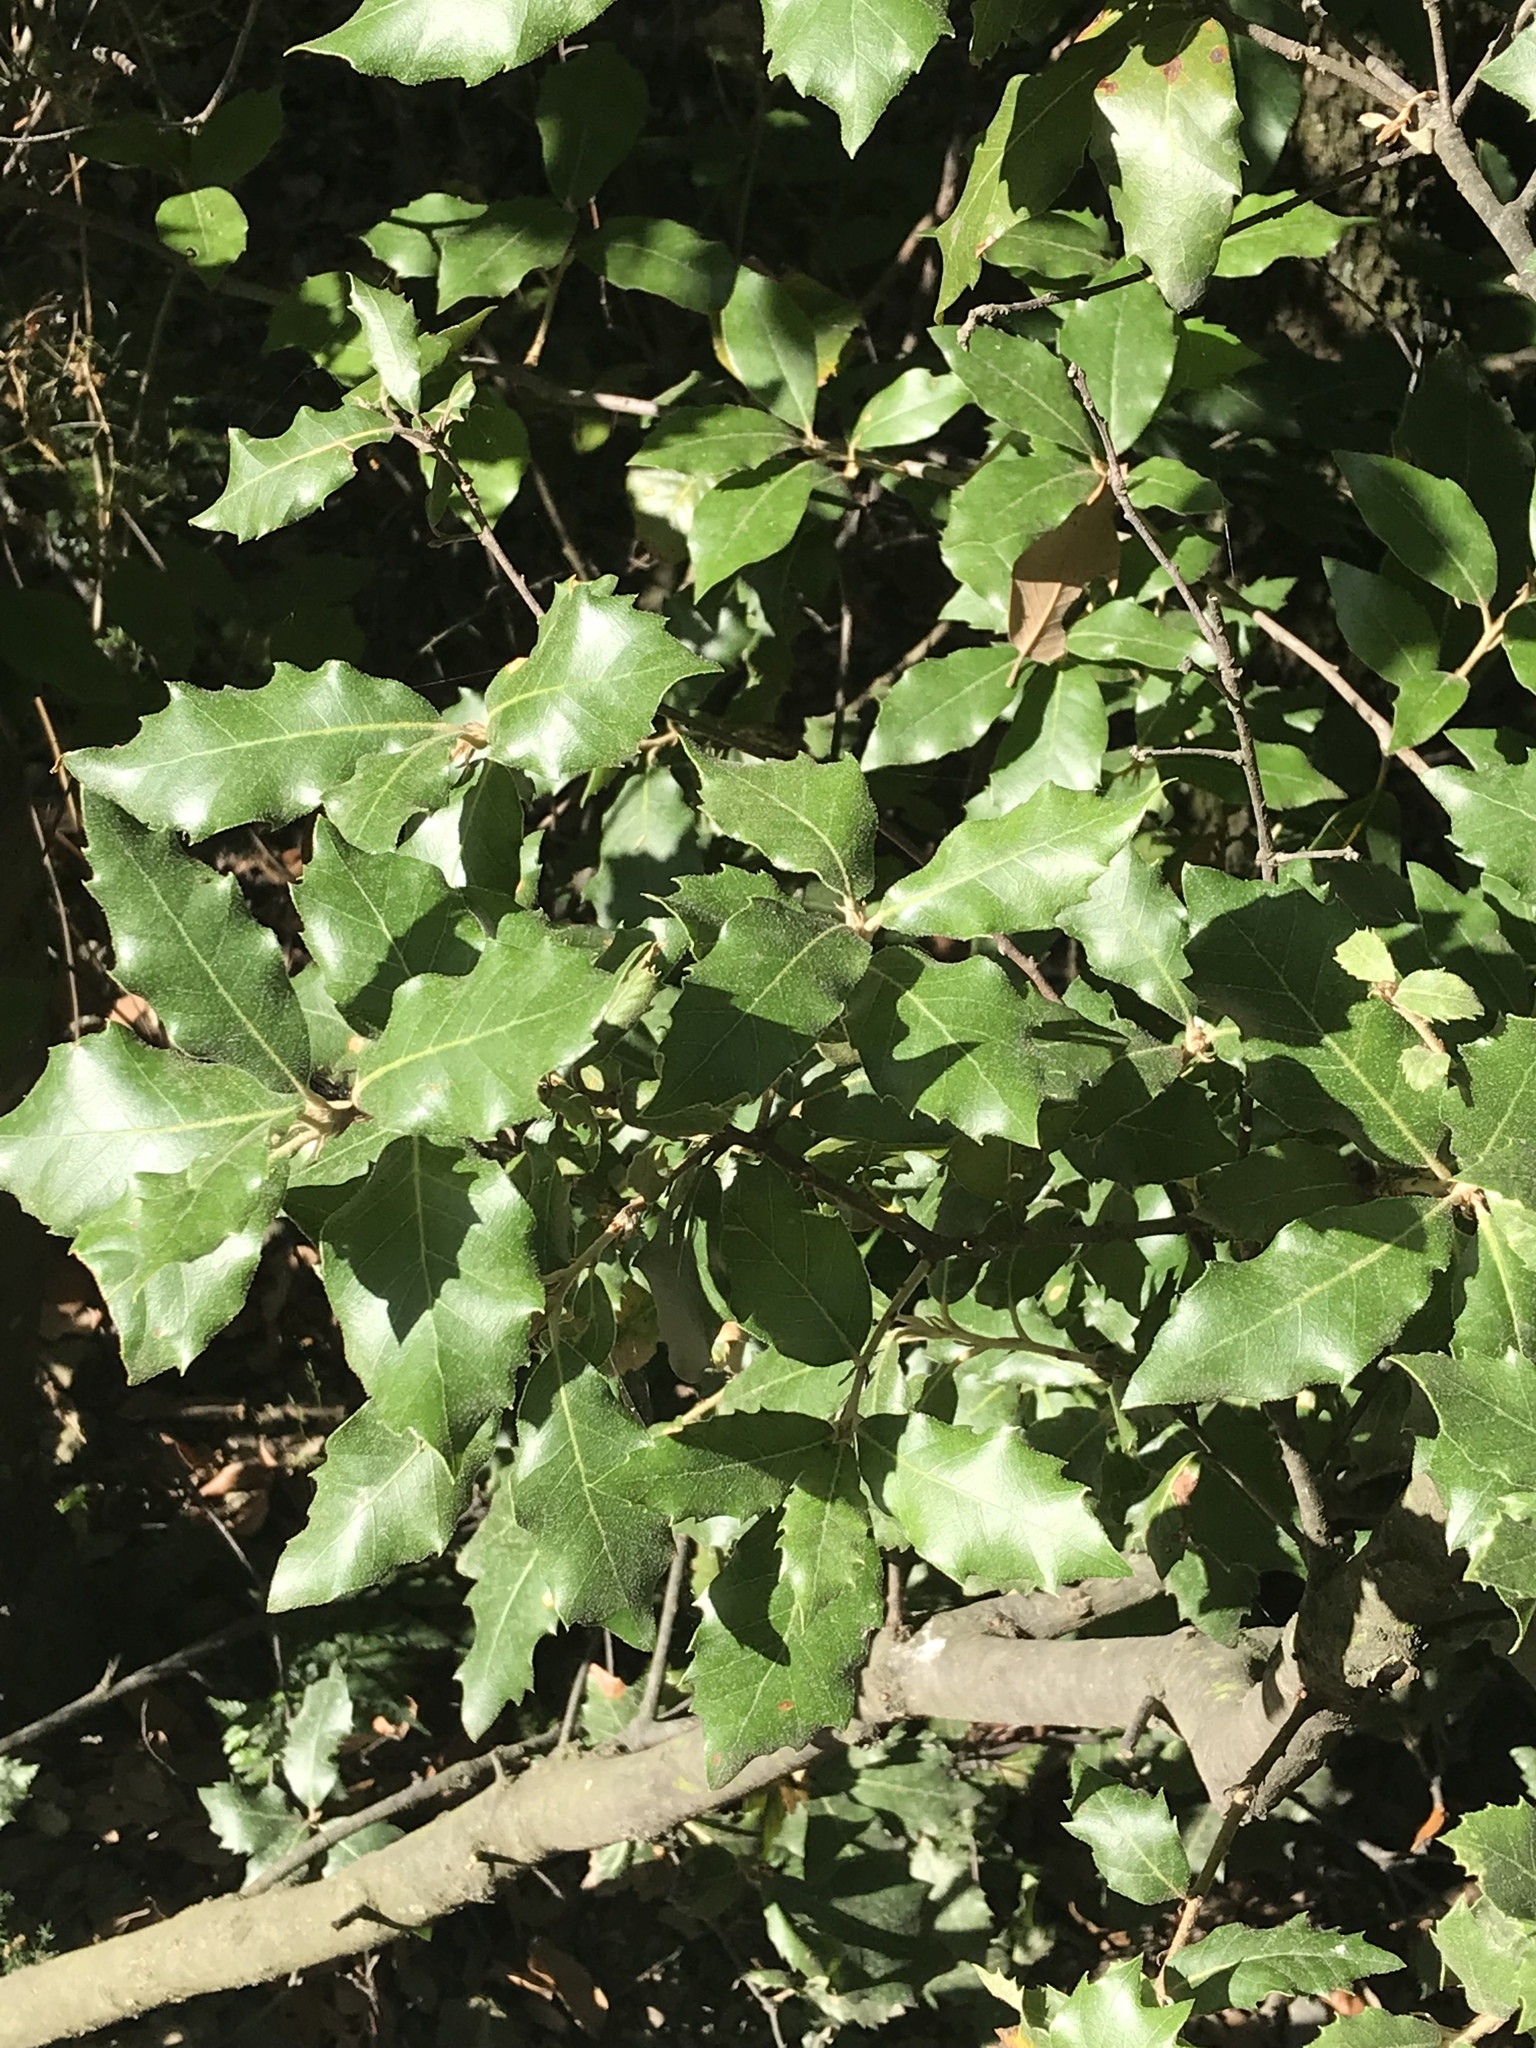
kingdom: Plantae
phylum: Tracheophyta
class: Magnoliopsida
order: Fagales
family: Fagaceae
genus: Quercus
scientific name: Quercus ilex
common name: Evergreen oak
